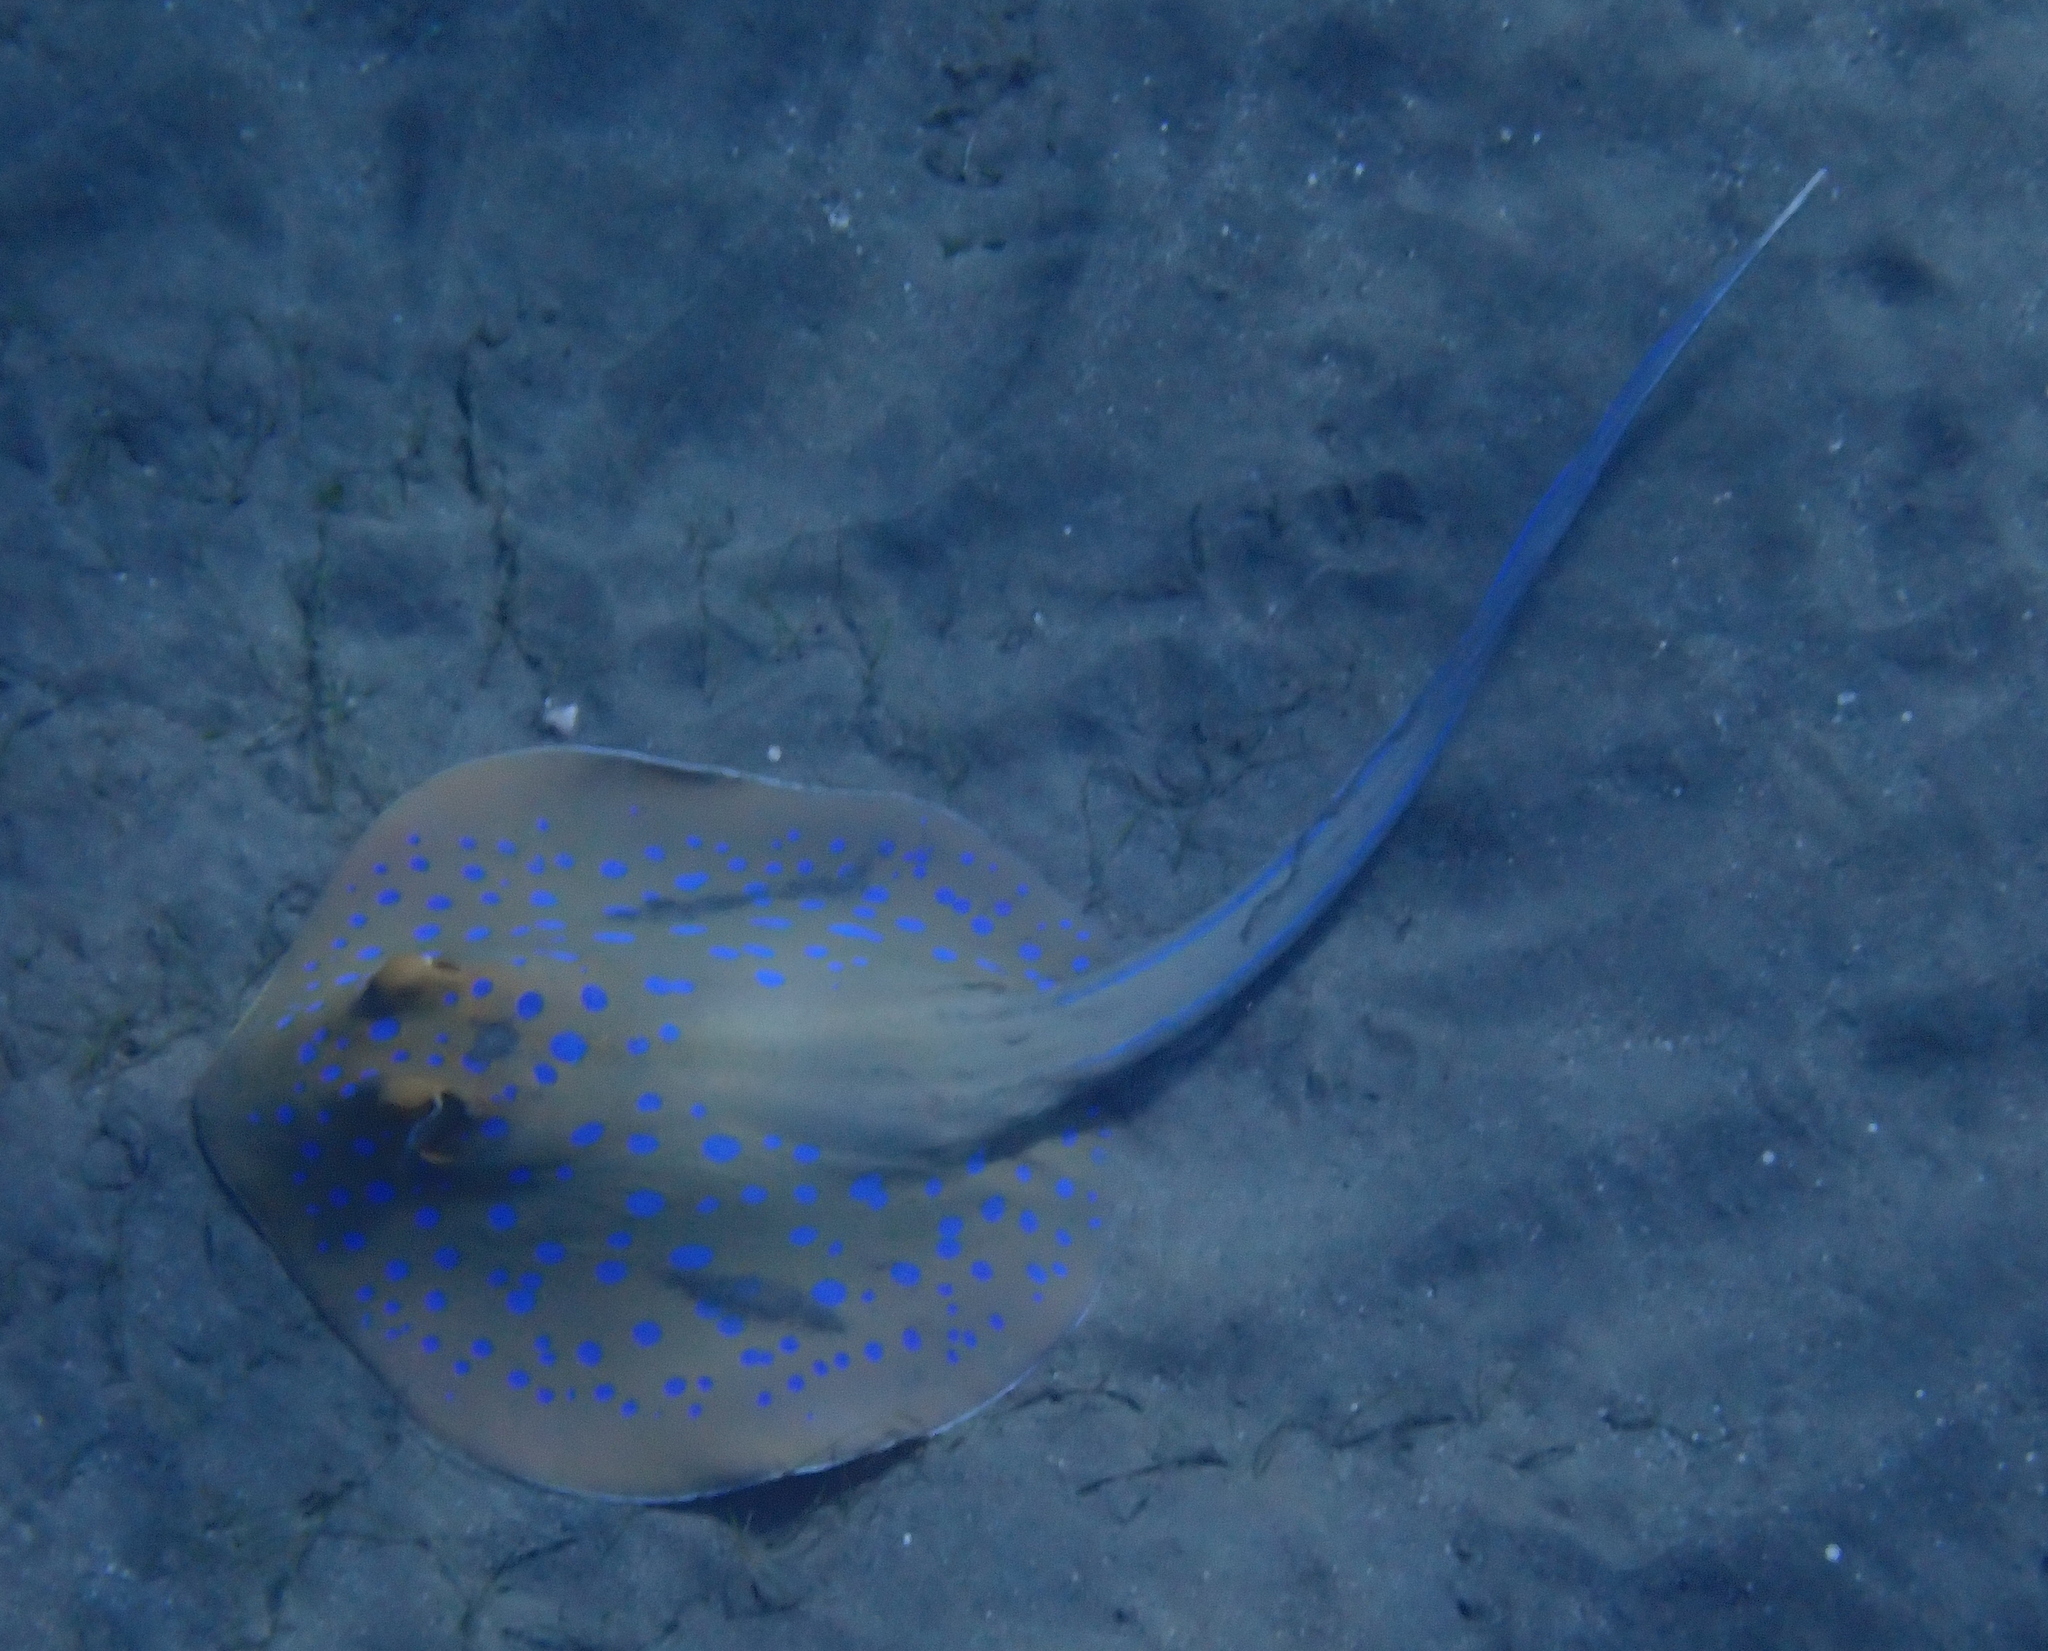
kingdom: Animalia
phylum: Chordata
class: Elasmobranchii
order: Myliobatiformes
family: Dasyatidae
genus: Taeniura
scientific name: Taeniura lymma
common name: Bluespotted ribbontail ray
